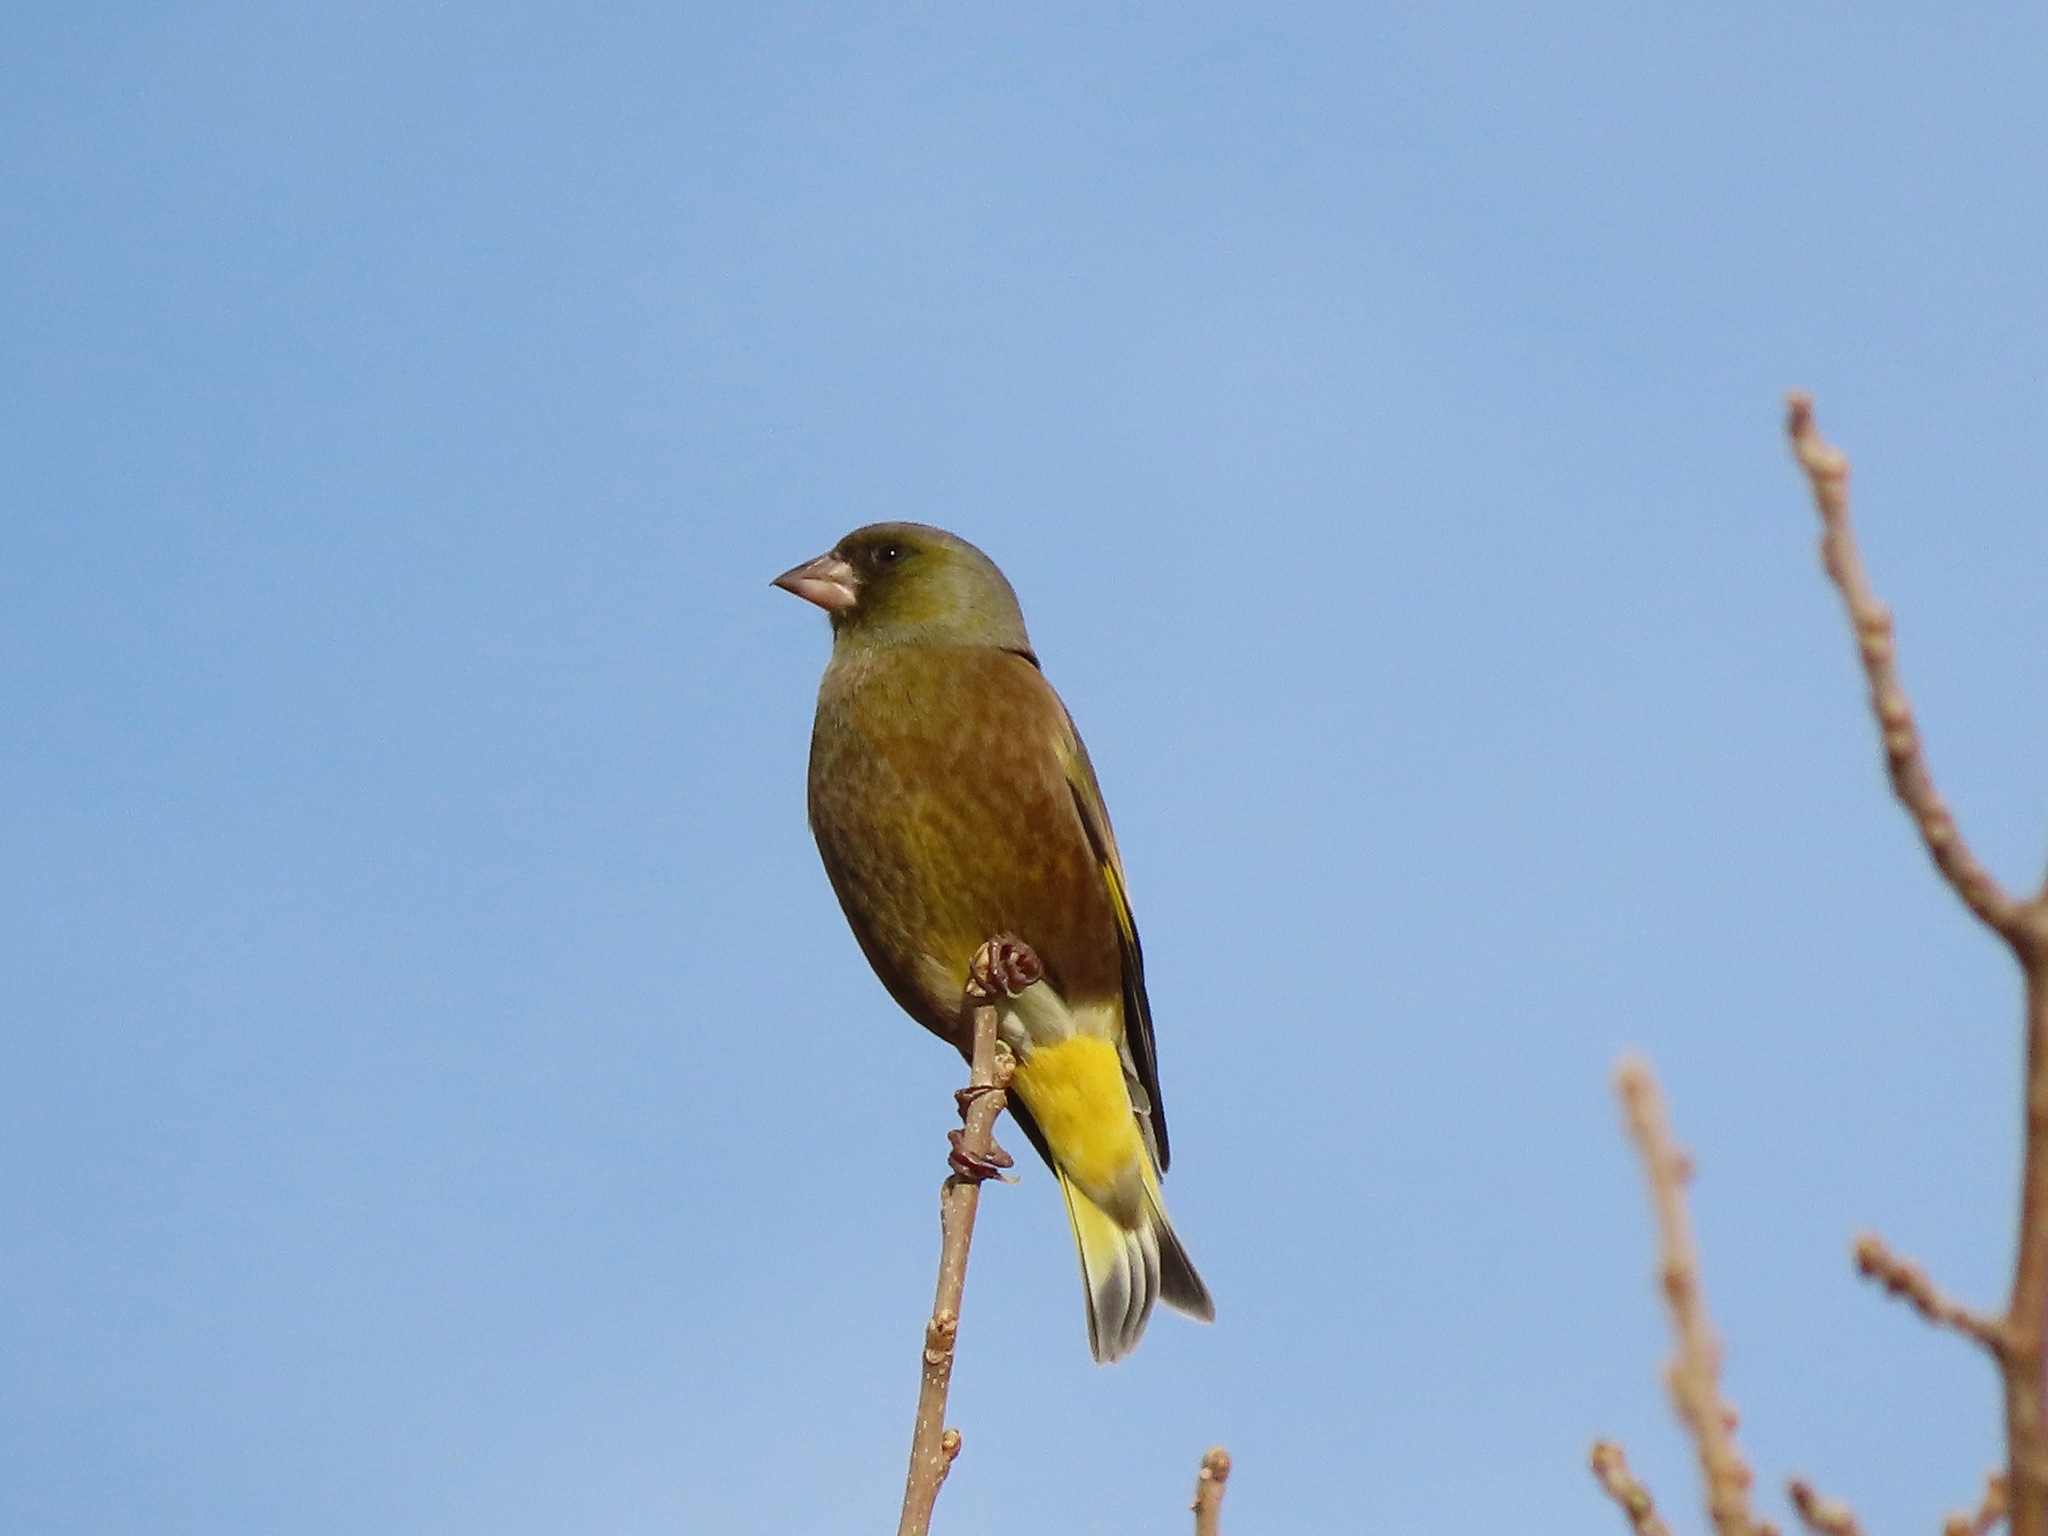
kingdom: Plantae
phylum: Tracheophyta
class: Liliopsida
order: Poales
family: Poaceae
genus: Chloris
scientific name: Chloris sinica
